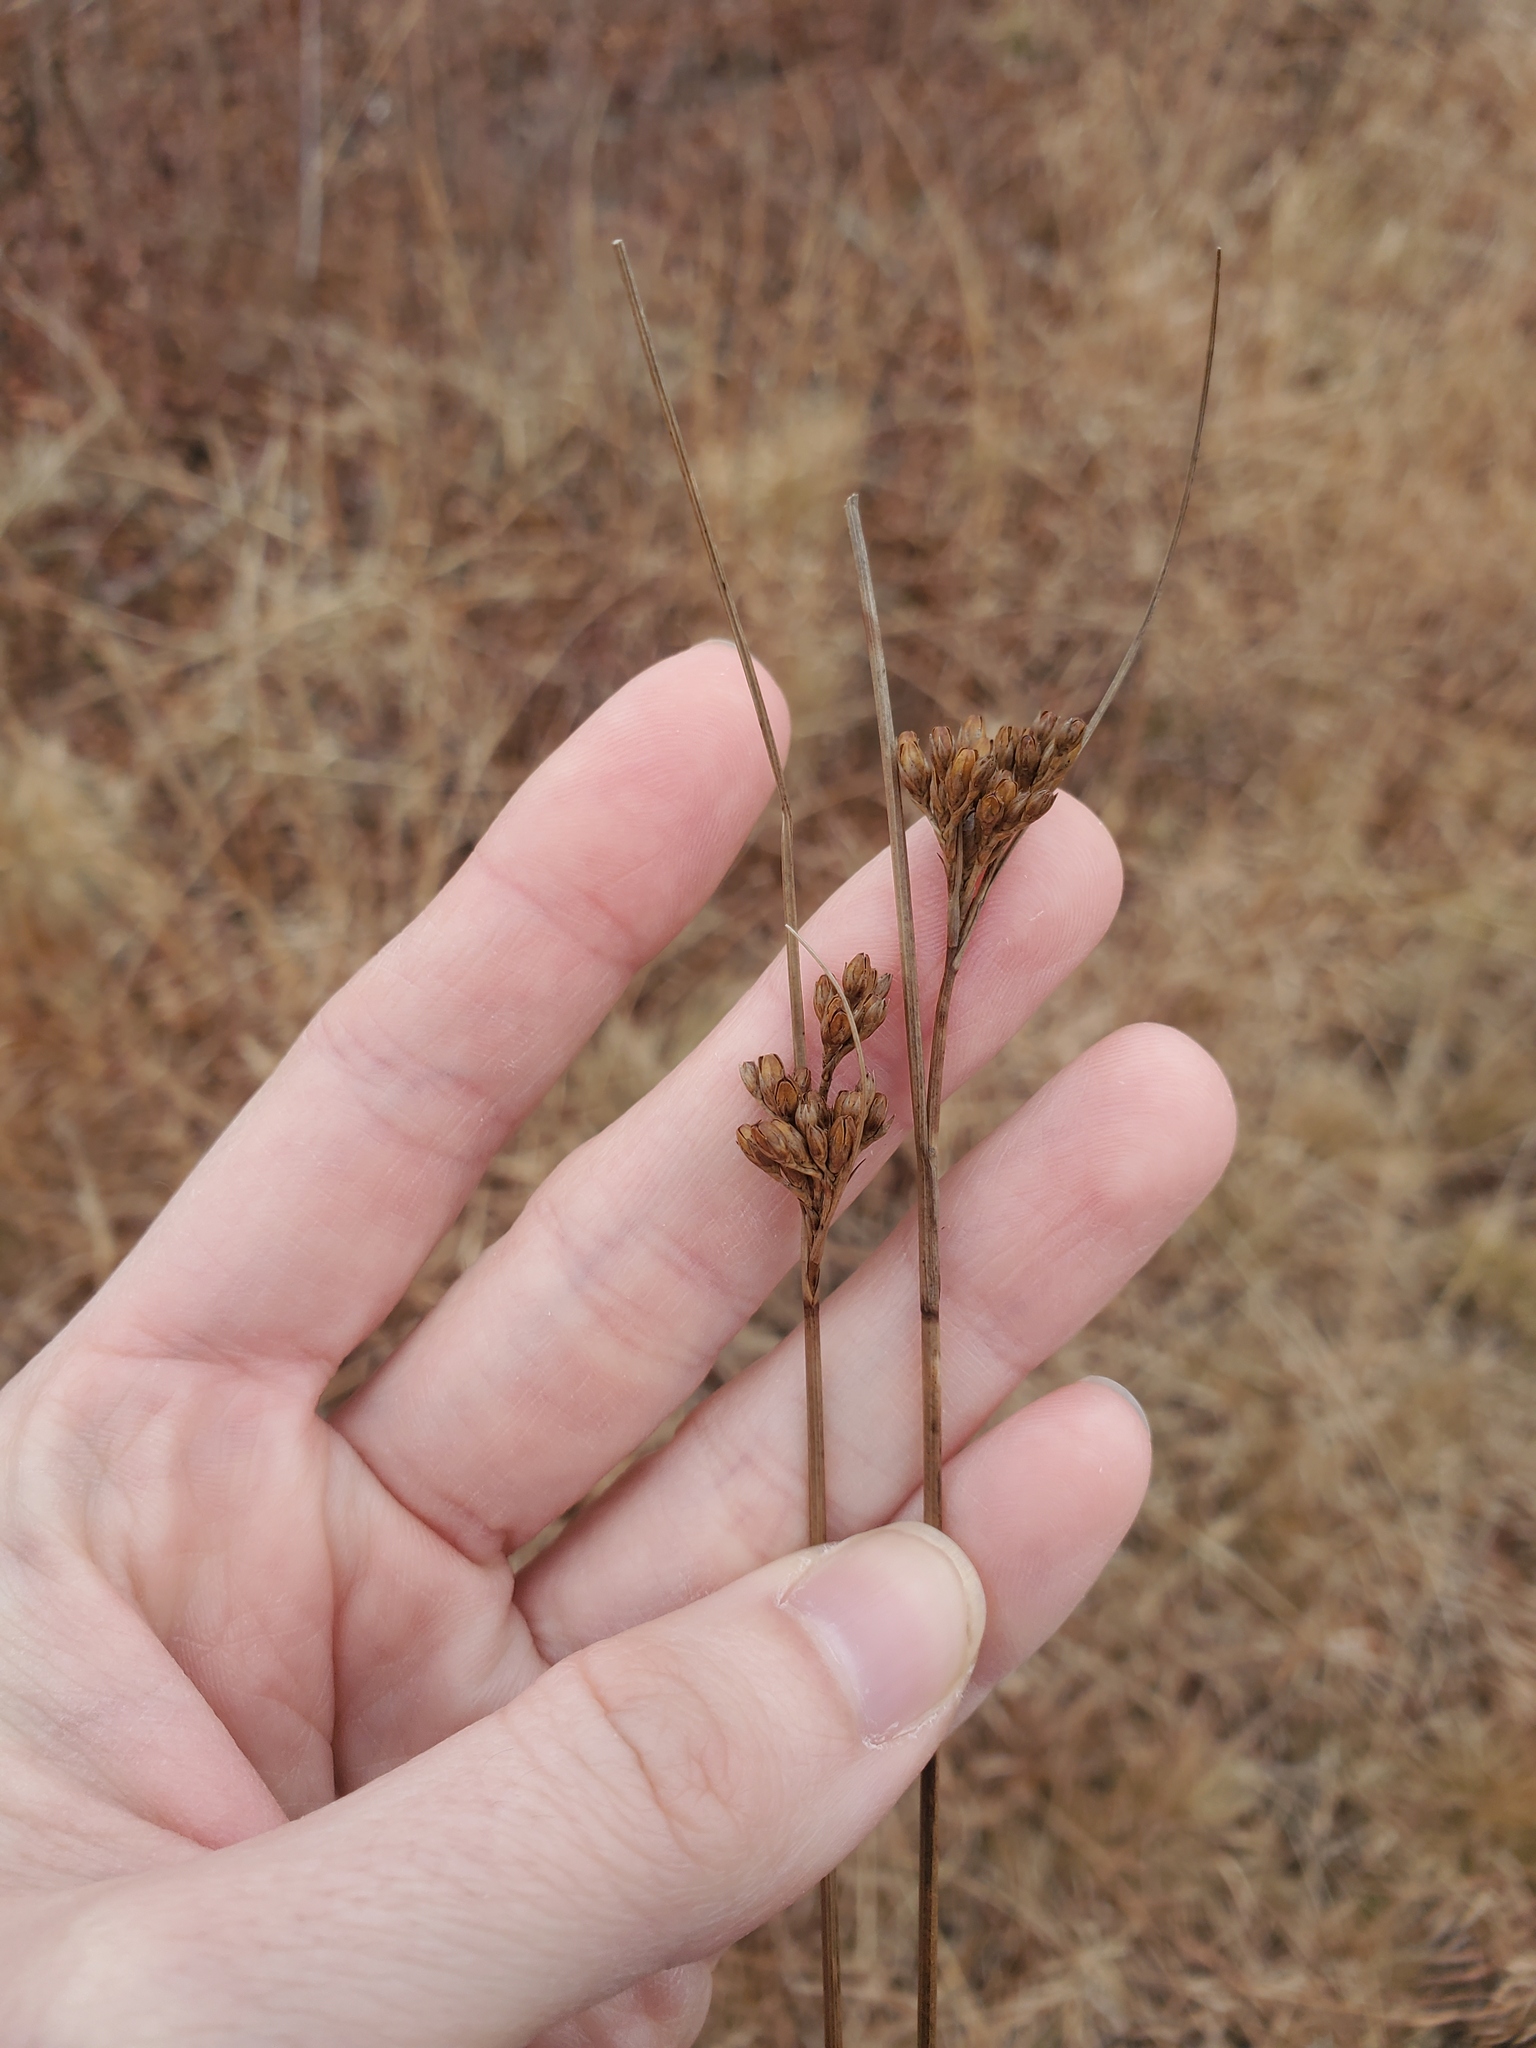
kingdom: Plantae
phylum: Tracheophyta
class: Liliopsida
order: Poales
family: Juncaceae
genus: Juncus
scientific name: Juncus greenei
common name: Greene's rush
